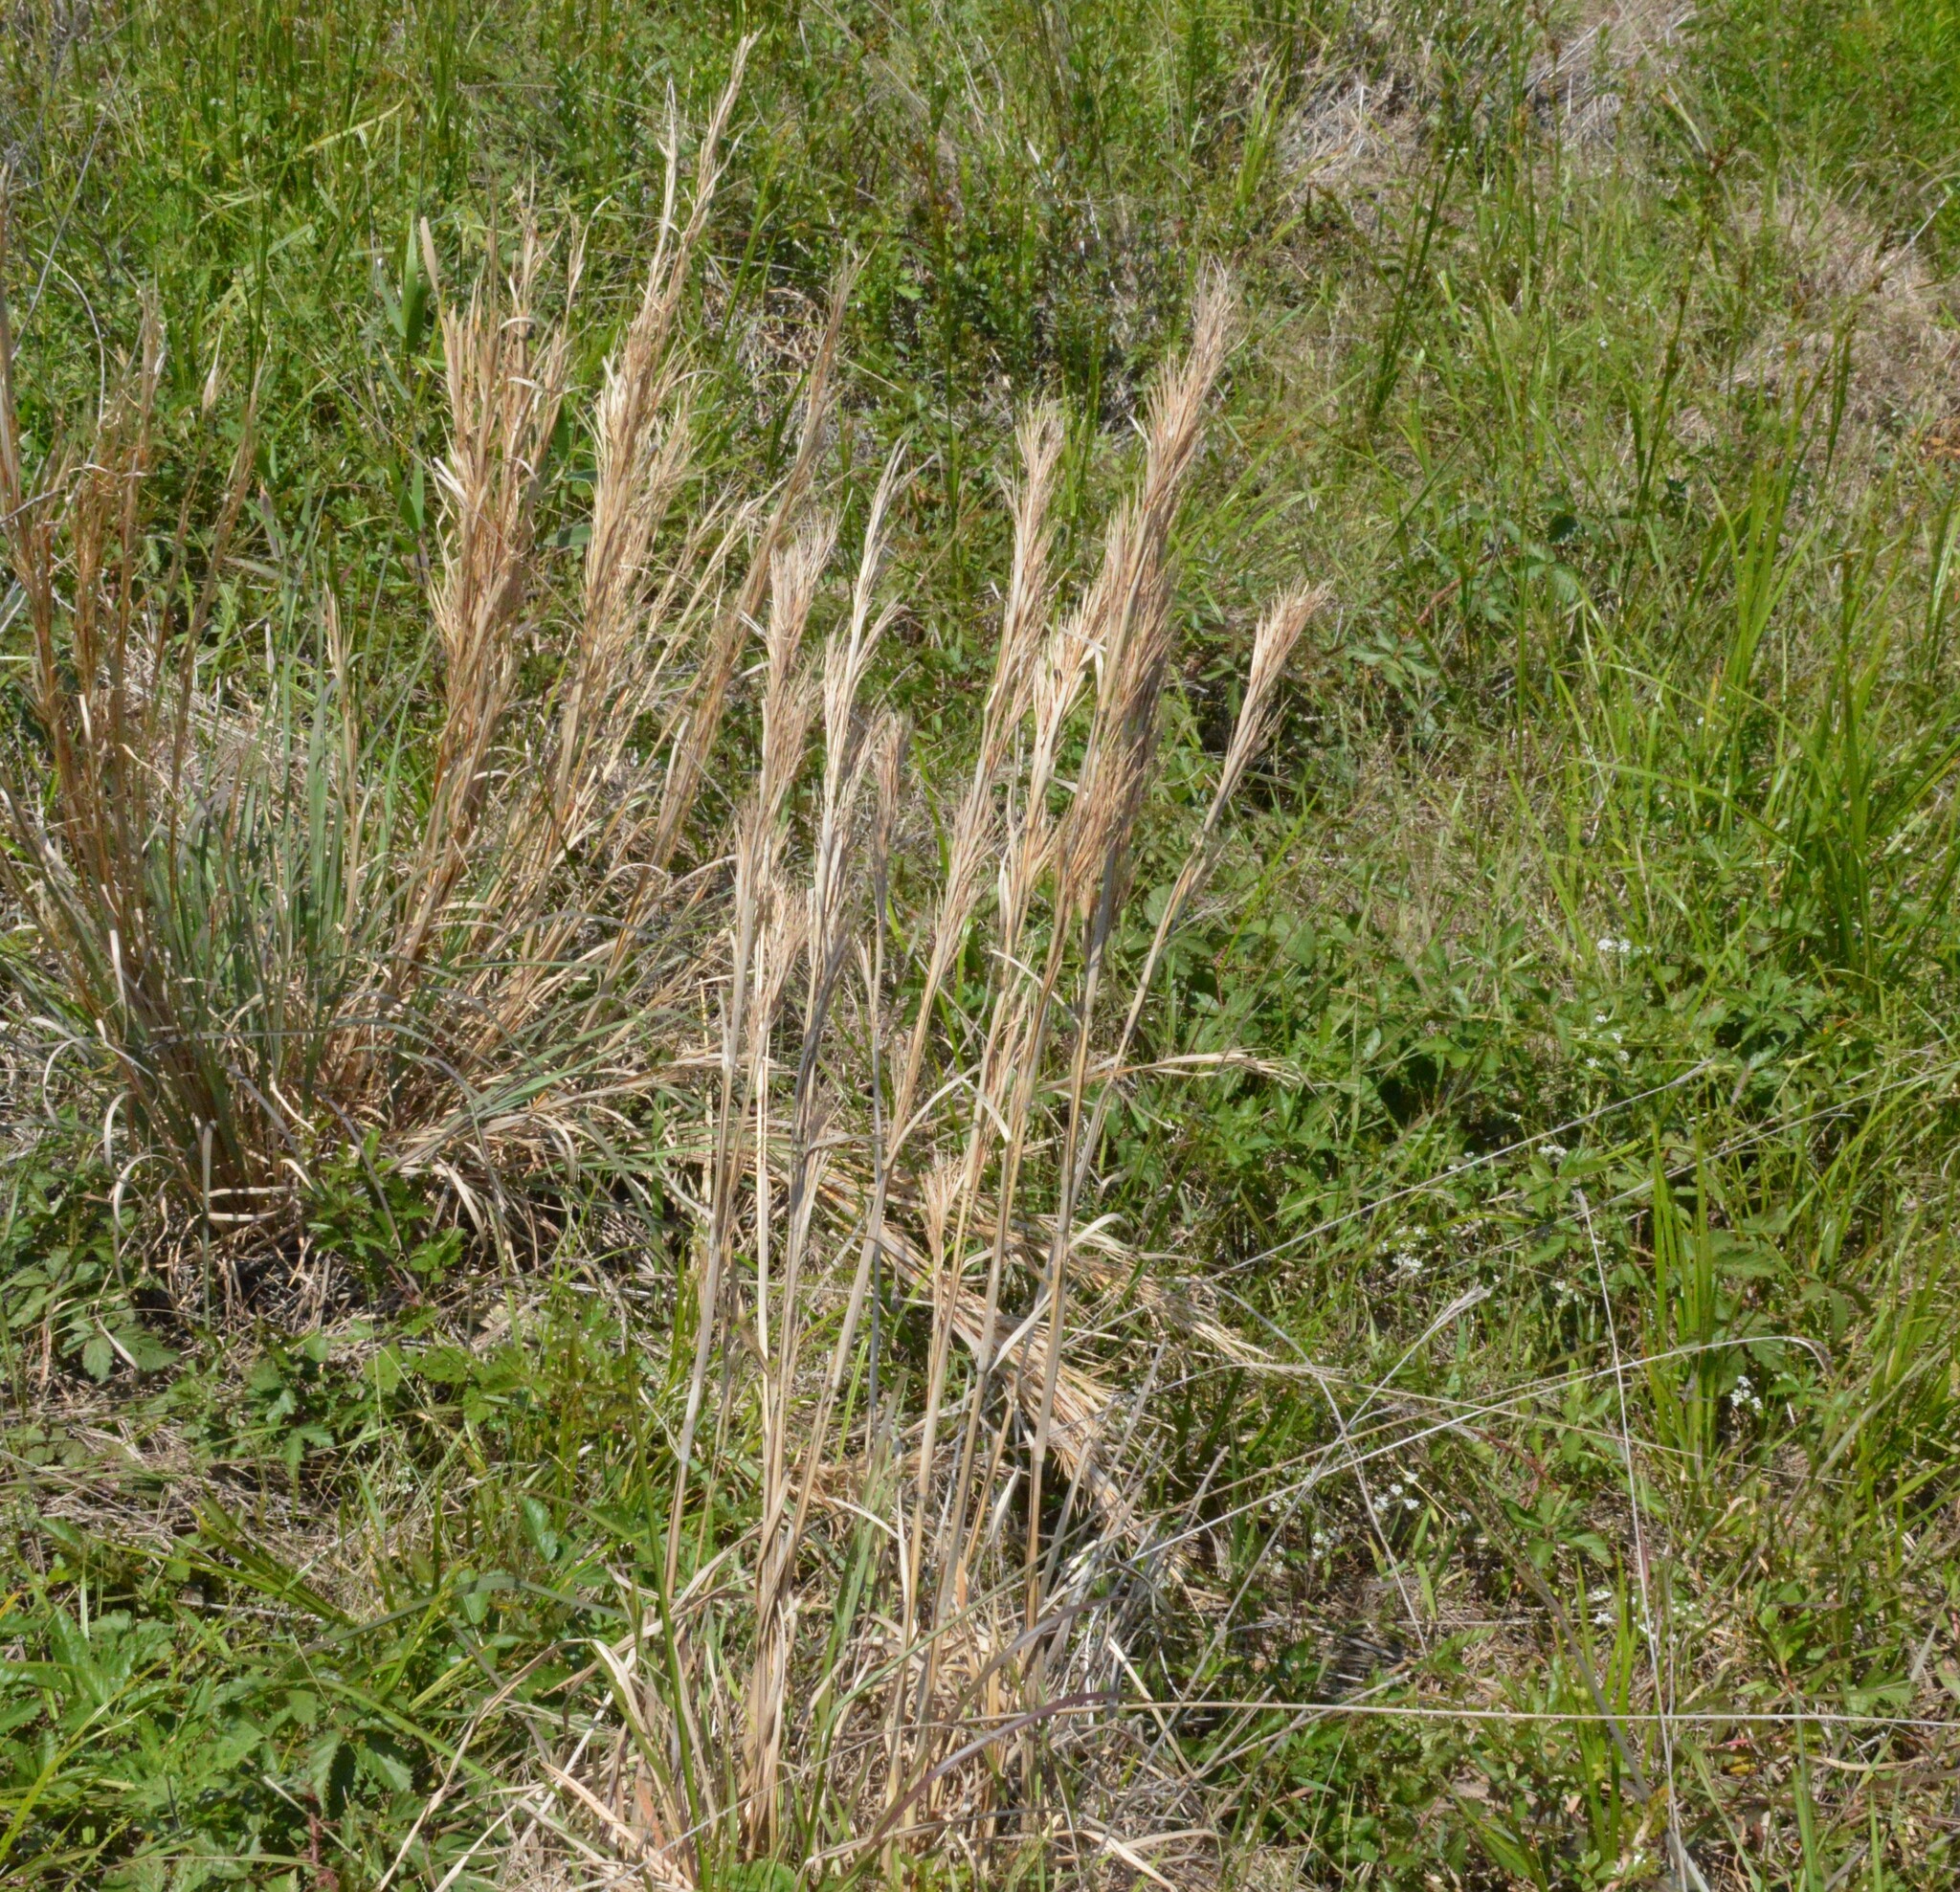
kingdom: Plantae
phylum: Tracheophyta
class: Liliopsida
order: Poales
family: Poaceae
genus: Andropogon
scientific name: Andropogon tenuispatheus
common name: Bushy bluestem
